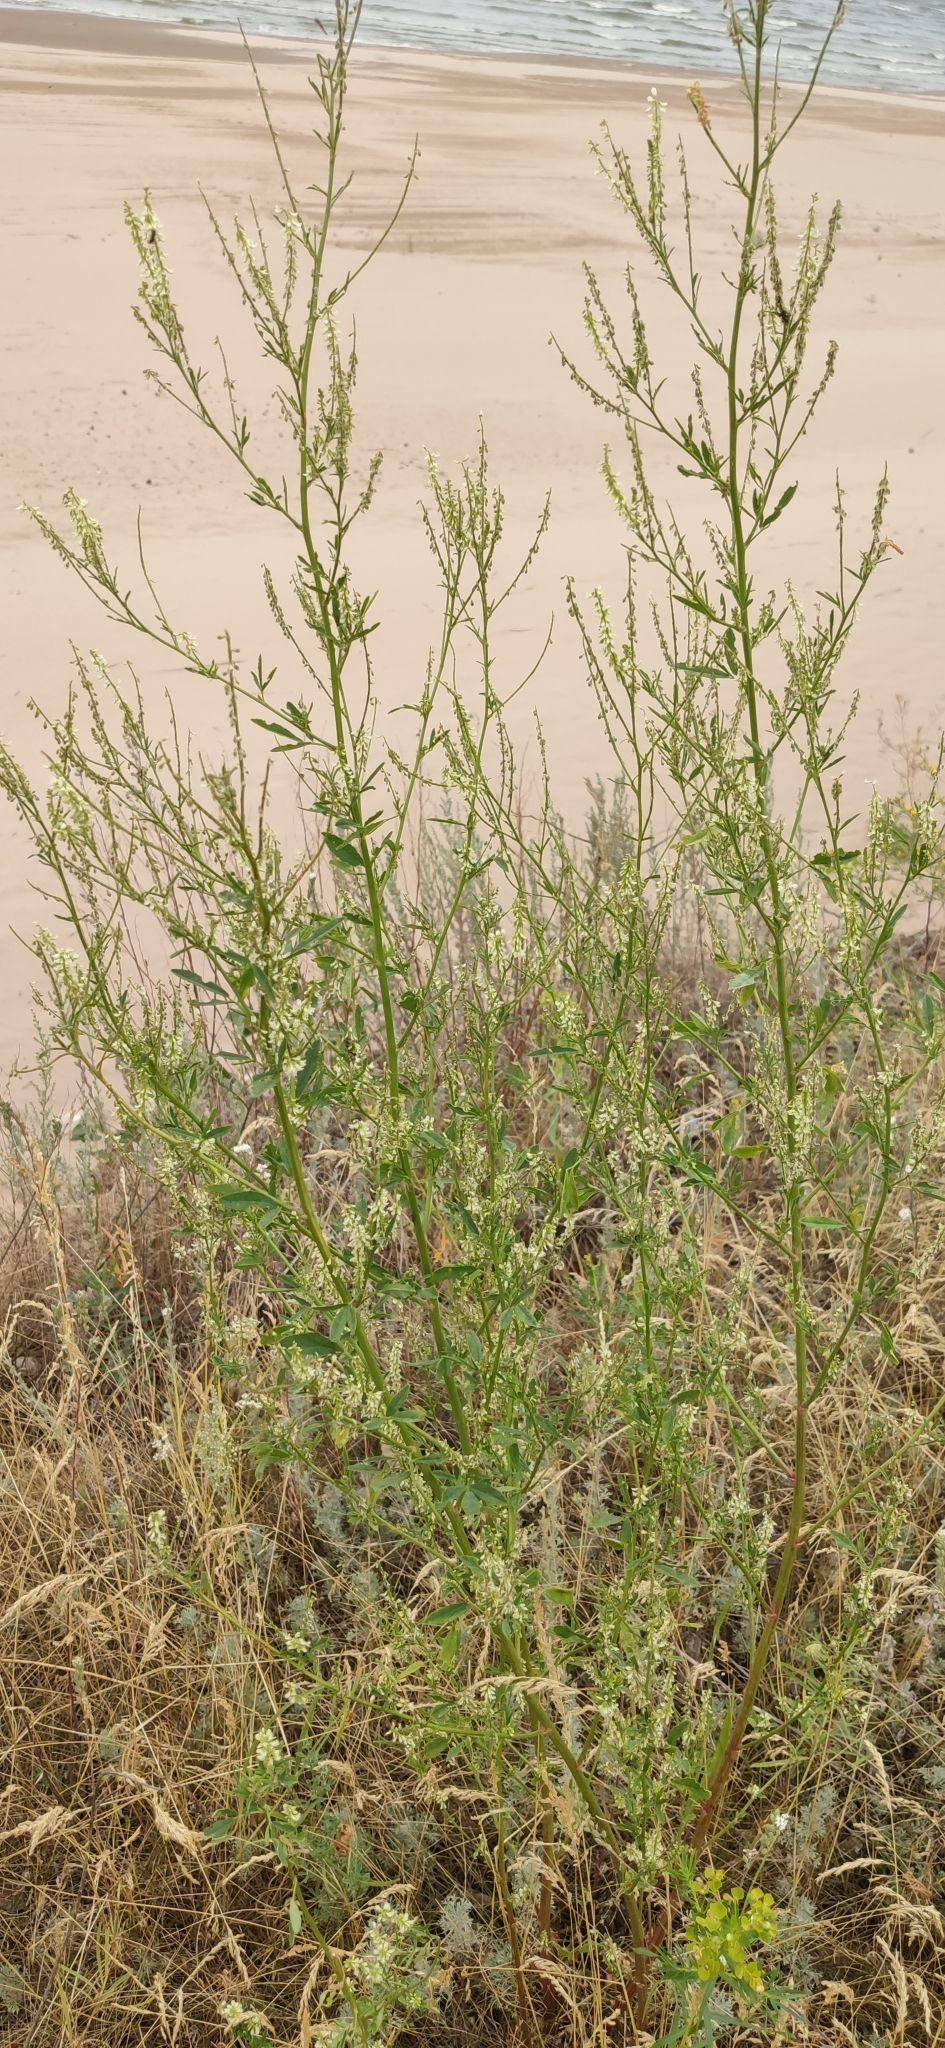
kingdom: Plantae
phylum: Tracheophyta
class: Magnoliopsida
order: Fabales
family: Fabaceae
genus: Melilotus
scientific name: Melilotus albus
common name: White melilot
